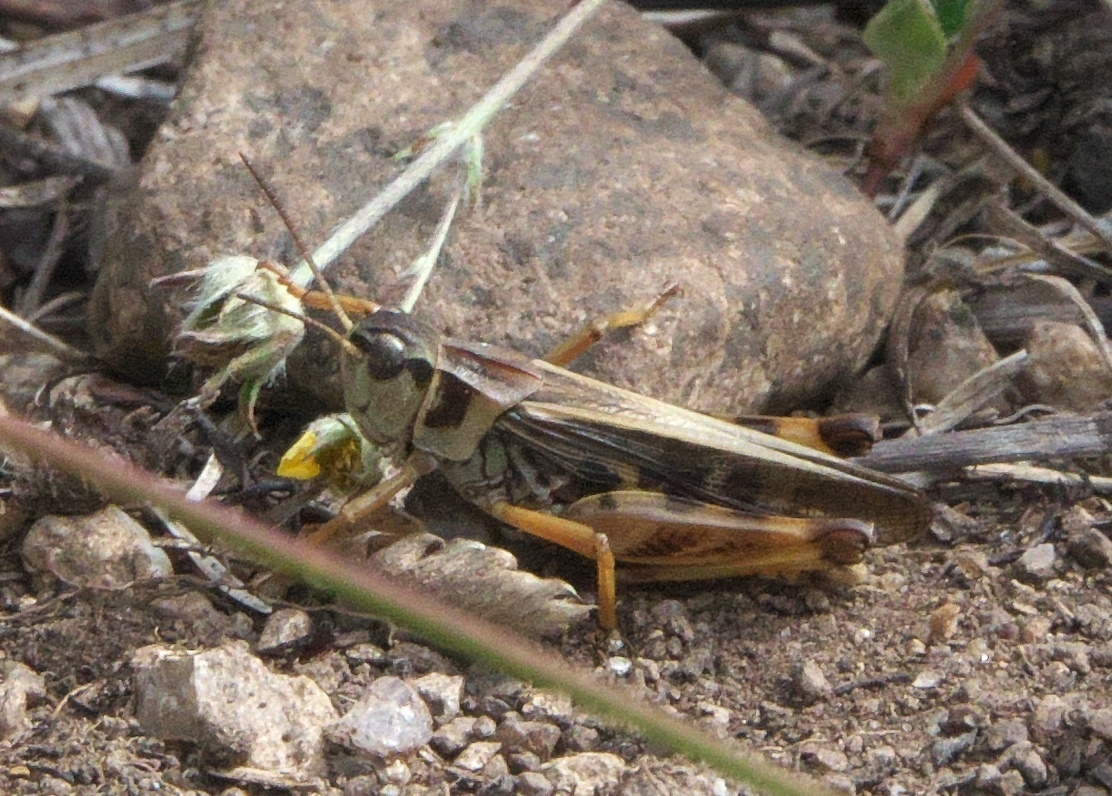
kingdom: Animalia
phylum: Arthropoda
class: Insecta
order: Orthoptera
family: Acrididae
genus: Camnula
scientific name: Camnula pellucida
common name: Clear-winged grasshopper
